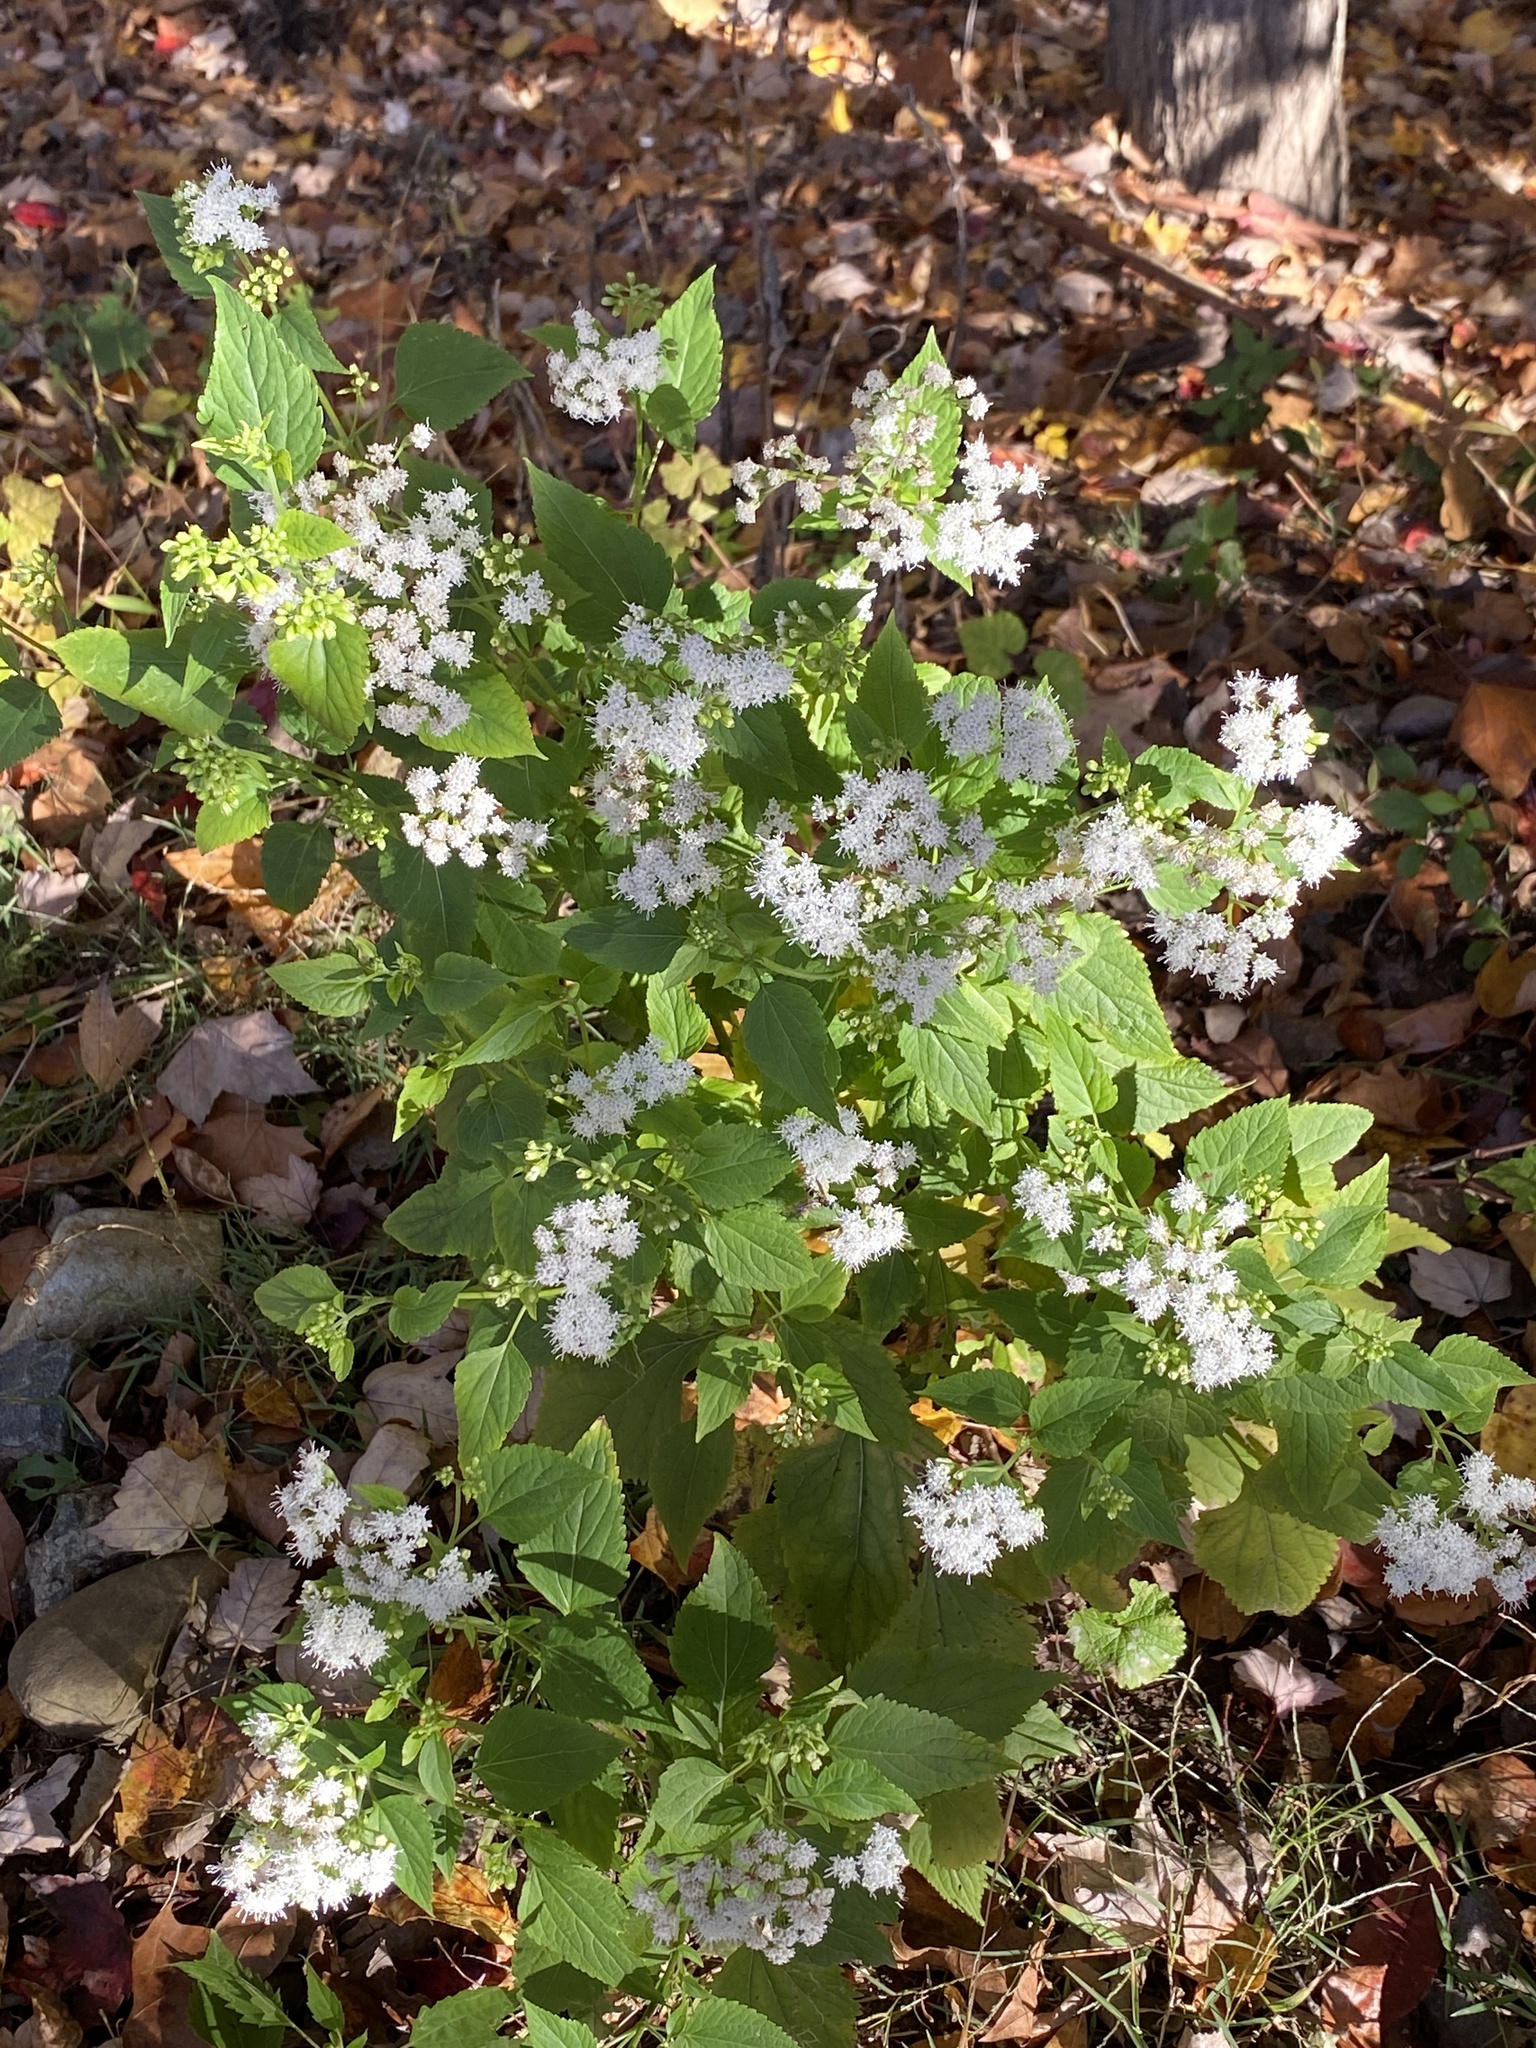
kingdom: Plantae
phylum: Tracheophyta
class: Magnoliopsida
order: Asterales
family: Asteraceae
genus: Ageratina
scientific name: Ageratina altissima
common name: White snakeroot
